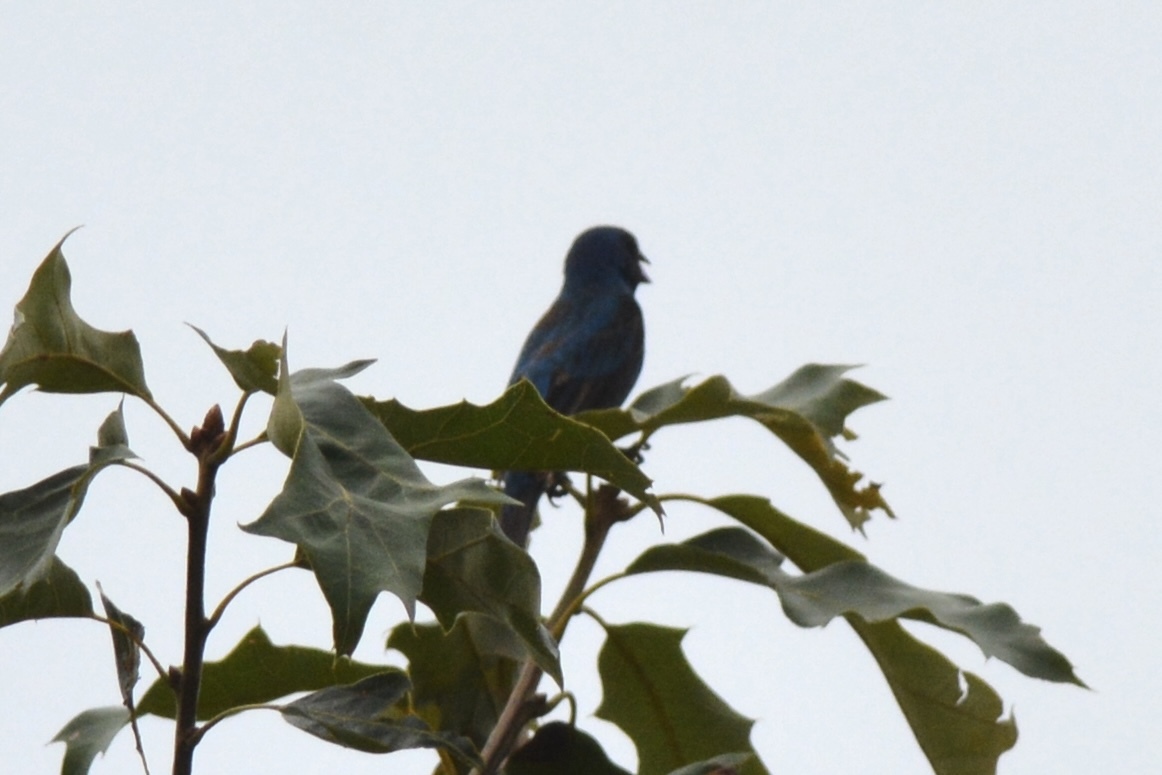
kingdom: Animalia
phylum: Chordata
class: Aves
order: Passeriformes
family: Cardinalidae
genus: Passerina
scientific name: Passerina cyanea
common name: Indigo bunting
